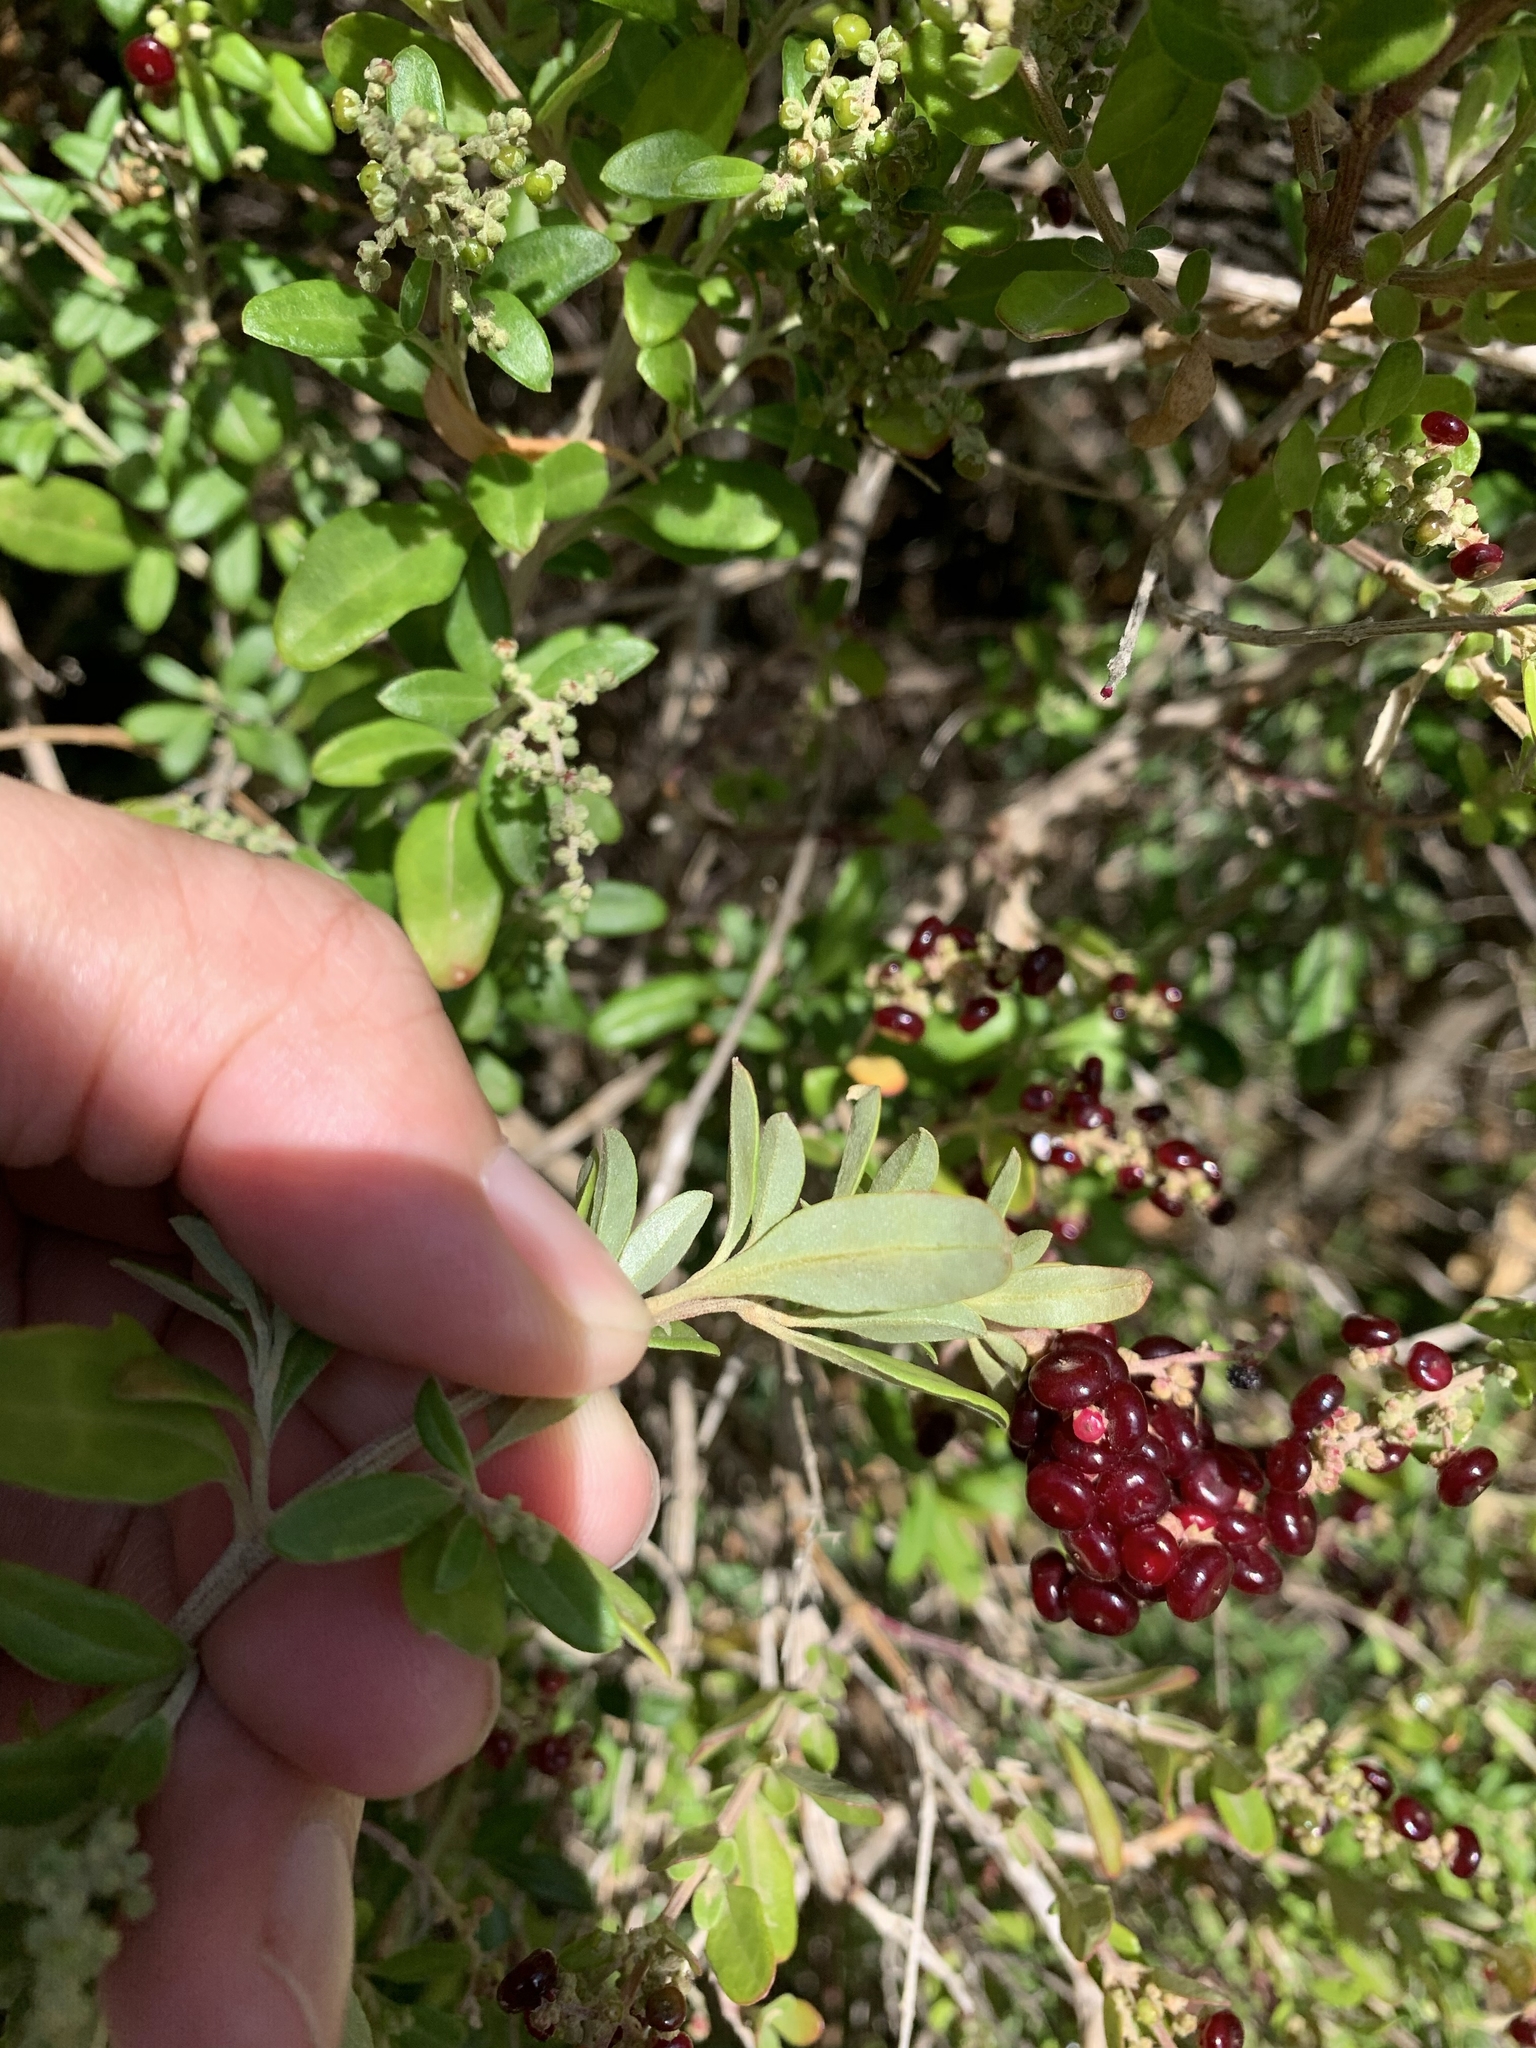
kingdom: Plantae
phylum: Tracheophyta
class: Magnoliopsida
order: Caryophyllales
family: Amaranthaceae
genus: Chenopodium
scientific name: Chenopodium candolleanum
